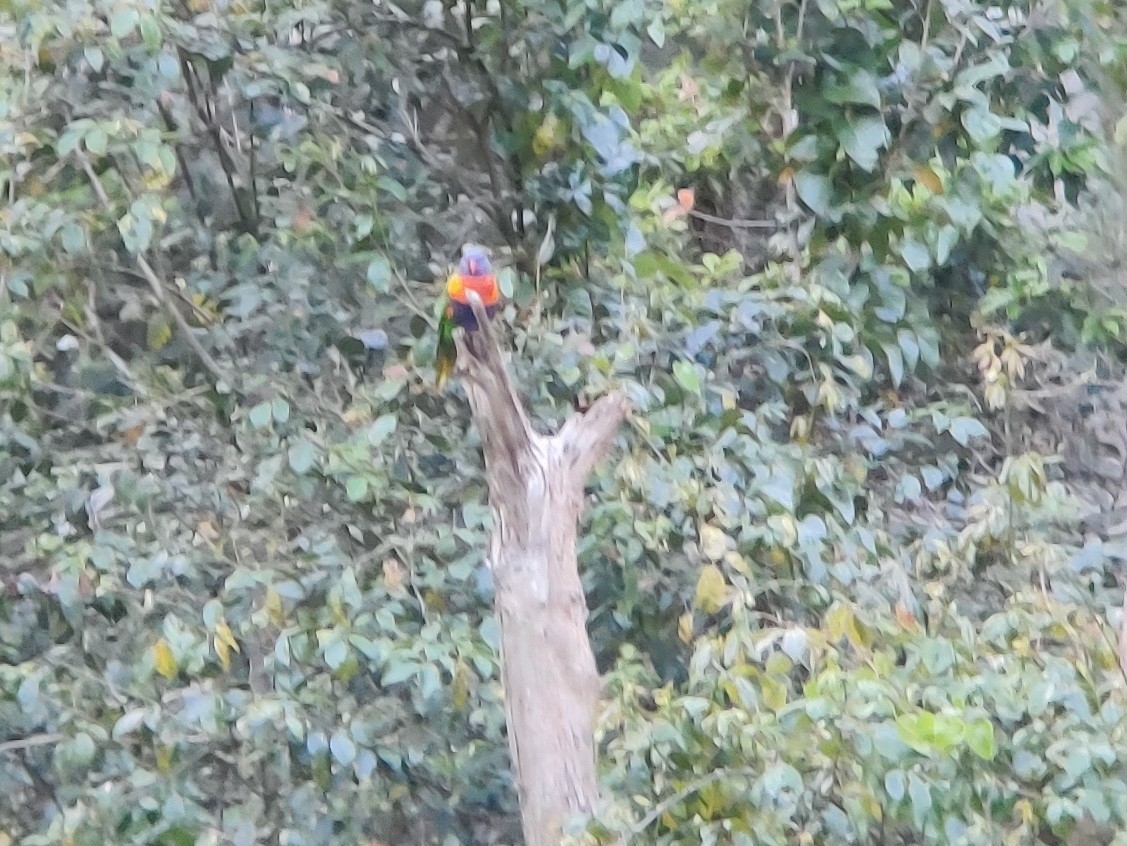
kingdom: Animalia
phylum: Chordata
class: Aves
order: Psittaciformes
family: Psittacidae
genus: Trichoglossus
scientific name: Trichoglossus haematodus
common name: Coconut lorikeet
